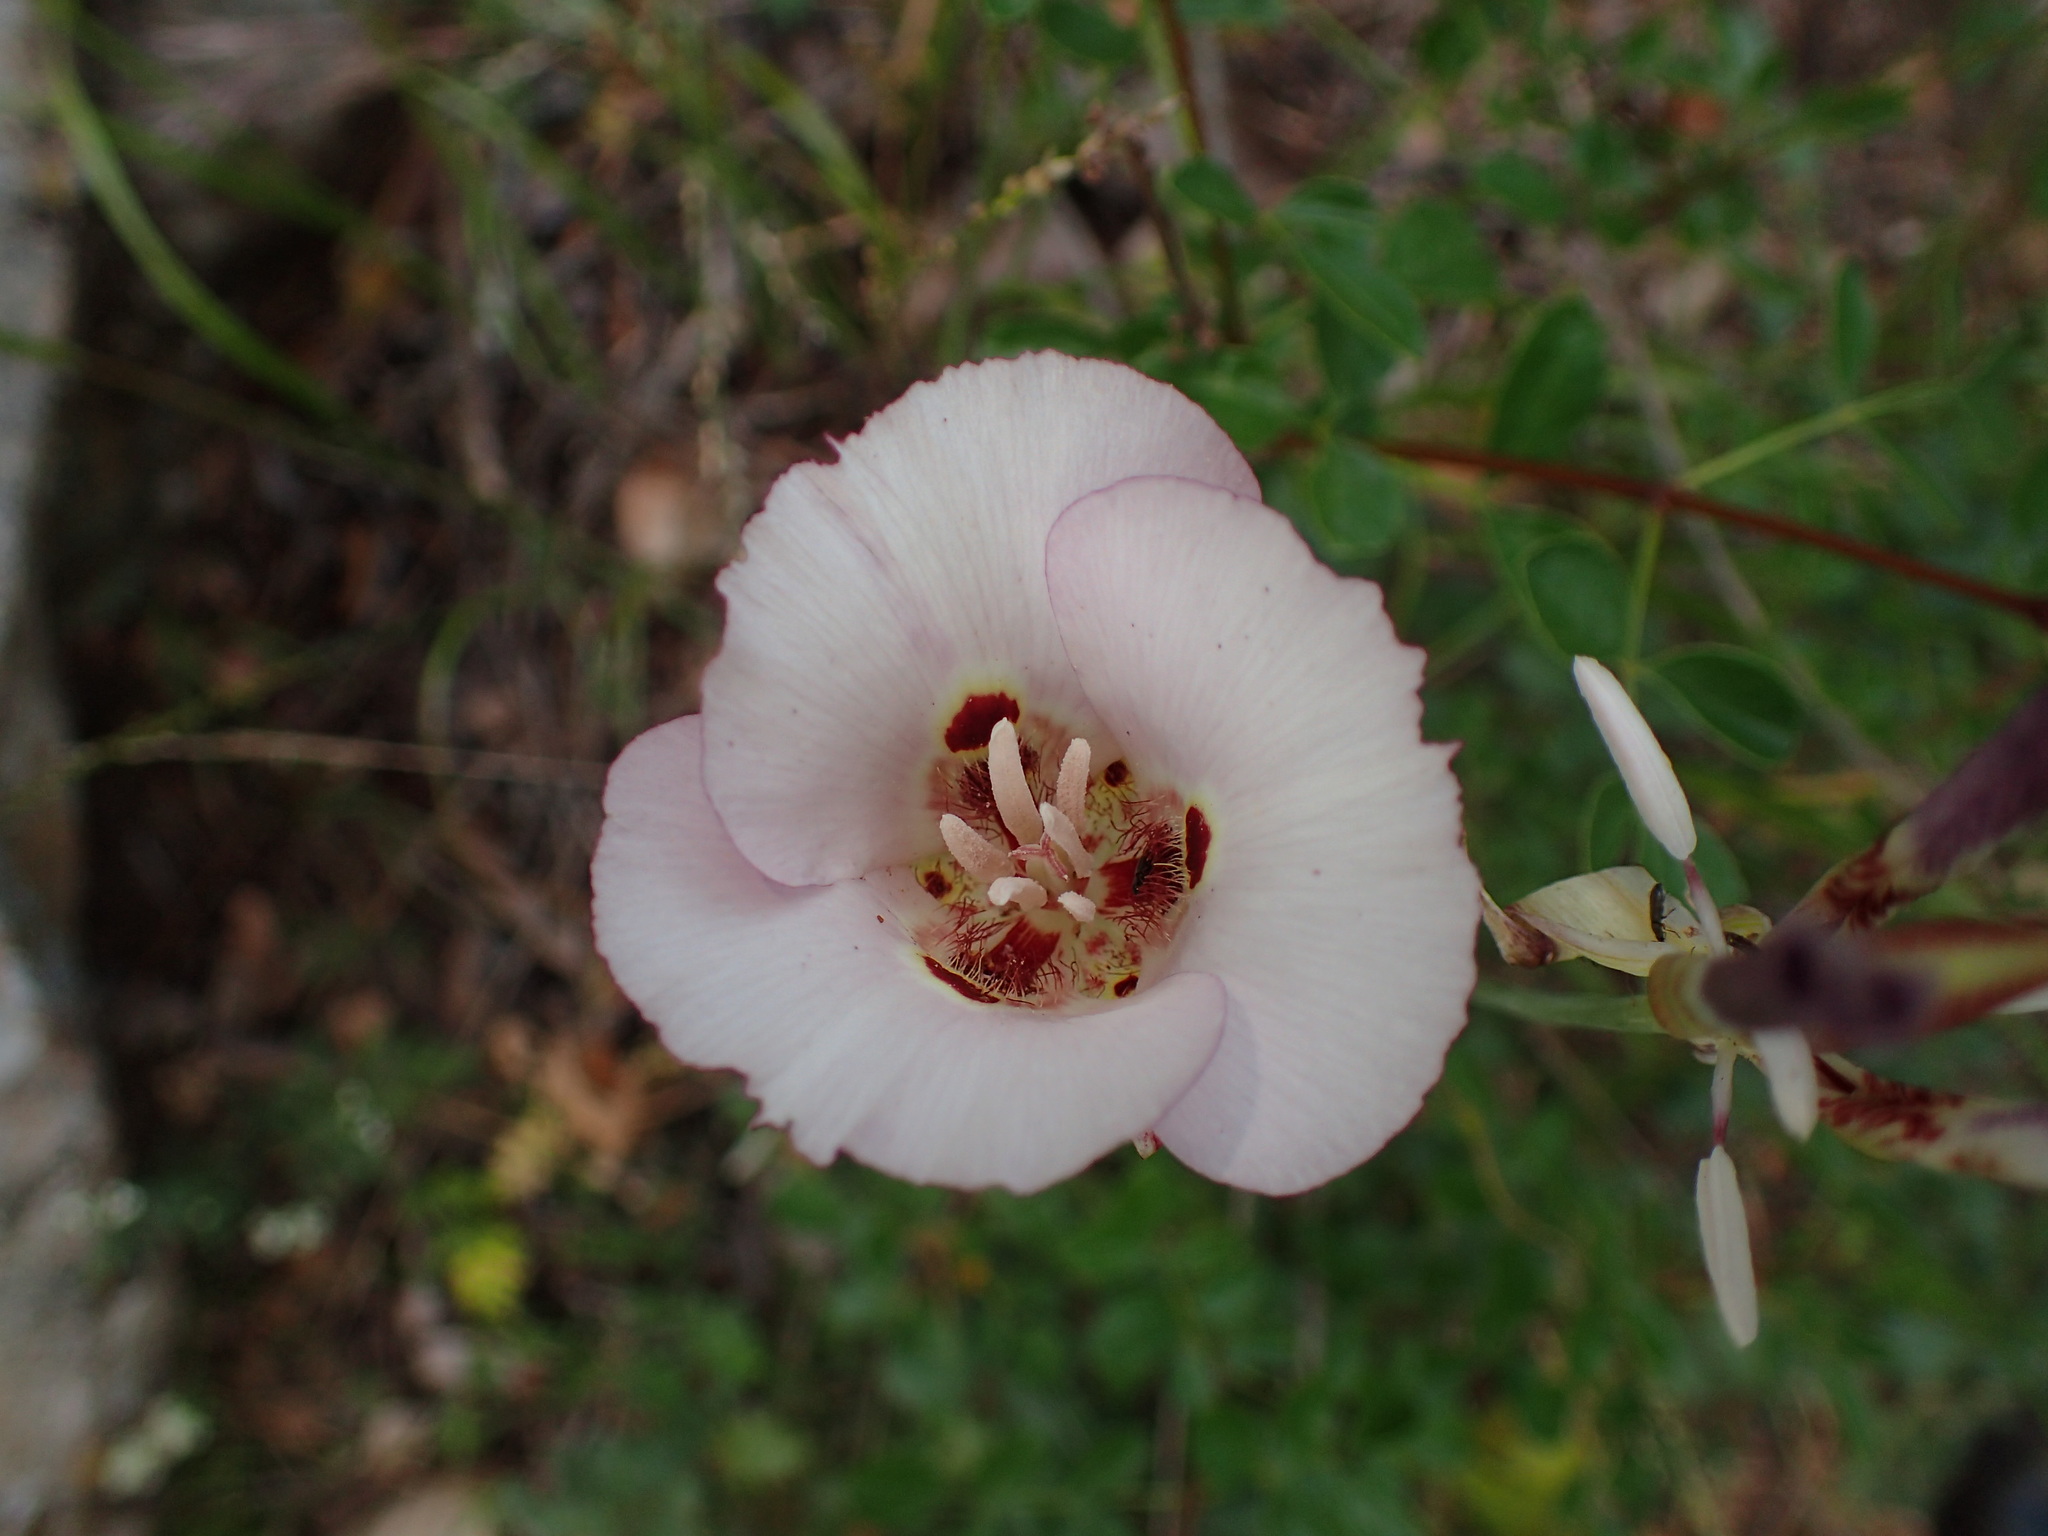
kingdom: Plantae
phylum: Tracheophyta
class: Liliopsida
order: Liliales
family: Liliaceae
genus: Calochortus
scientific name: Calochortus venustus
